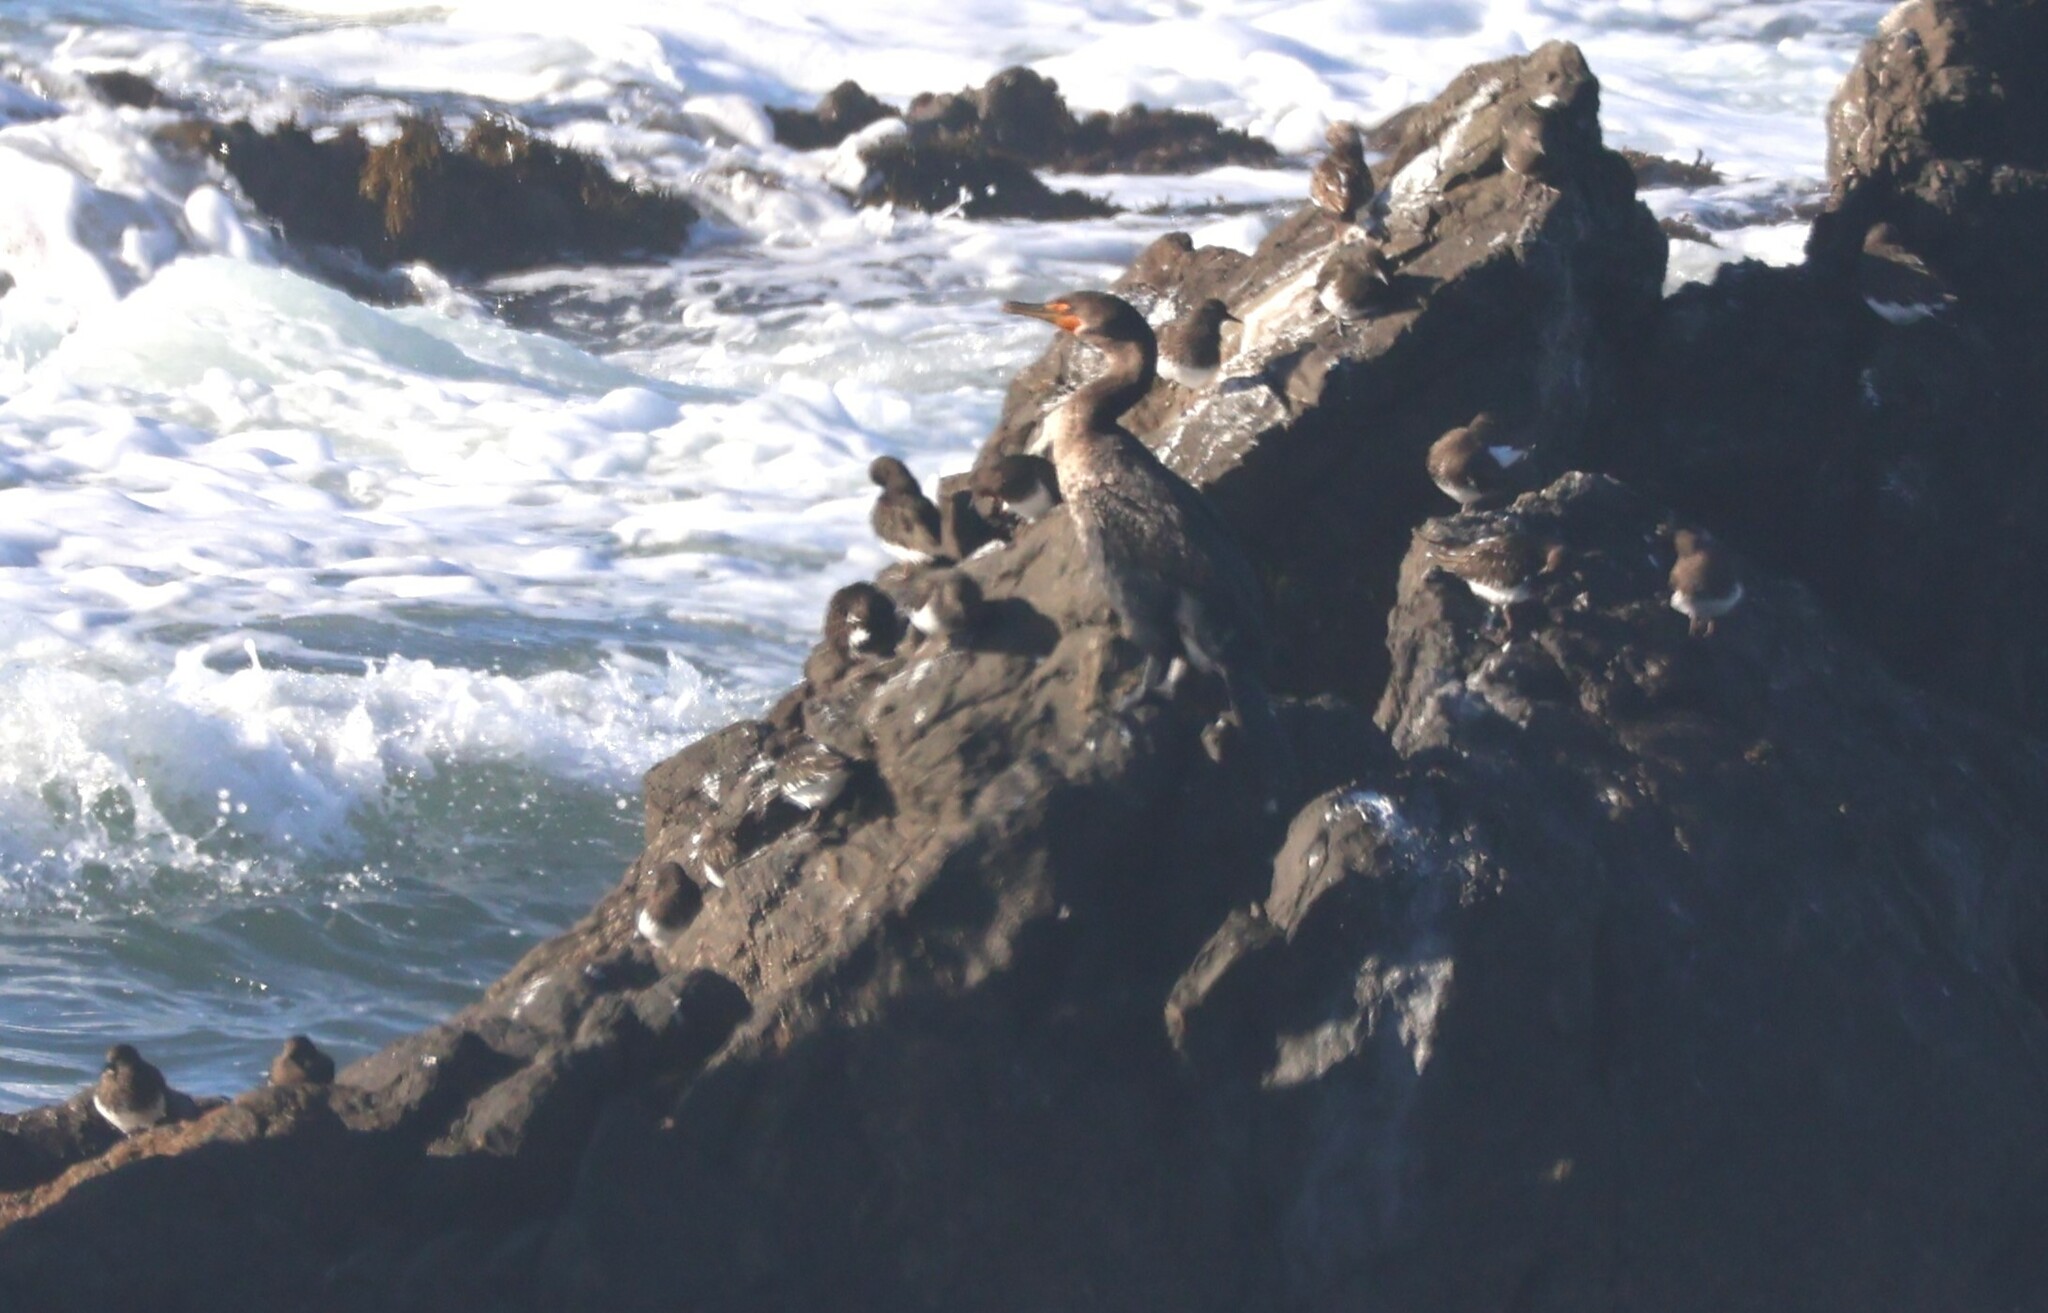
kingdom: Animalia
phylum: Chordata
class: Aves
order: Charadriiformes
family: Scolopacidae
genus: Arenaria
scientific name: Arenaria melanocephala
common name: Black turnstone
